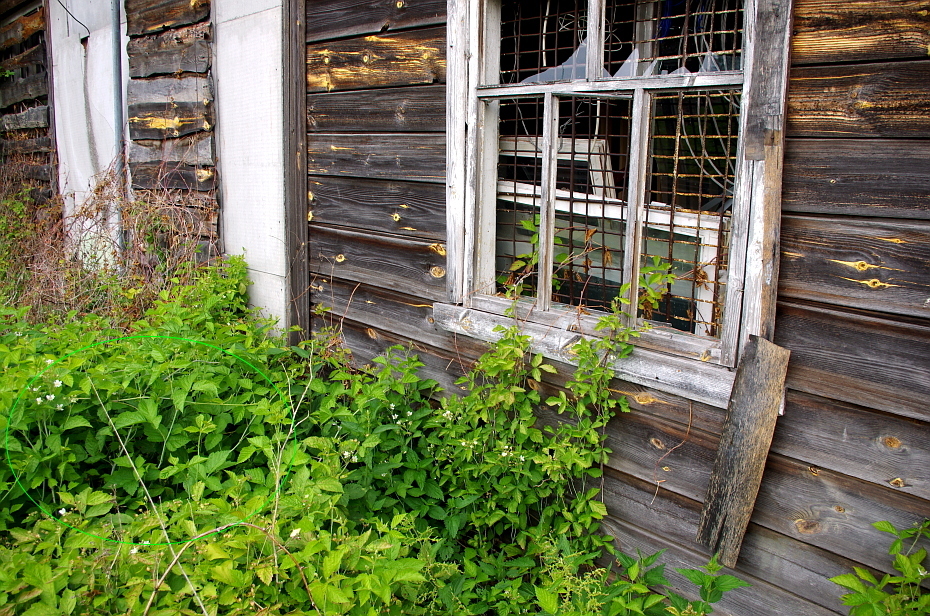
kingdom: Plantae
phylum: Tracheophyta
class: Magnoliopsida
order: Rosales
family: Rosaceae
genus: Rubus
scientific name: Rubus idaeus
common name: Raspberry
